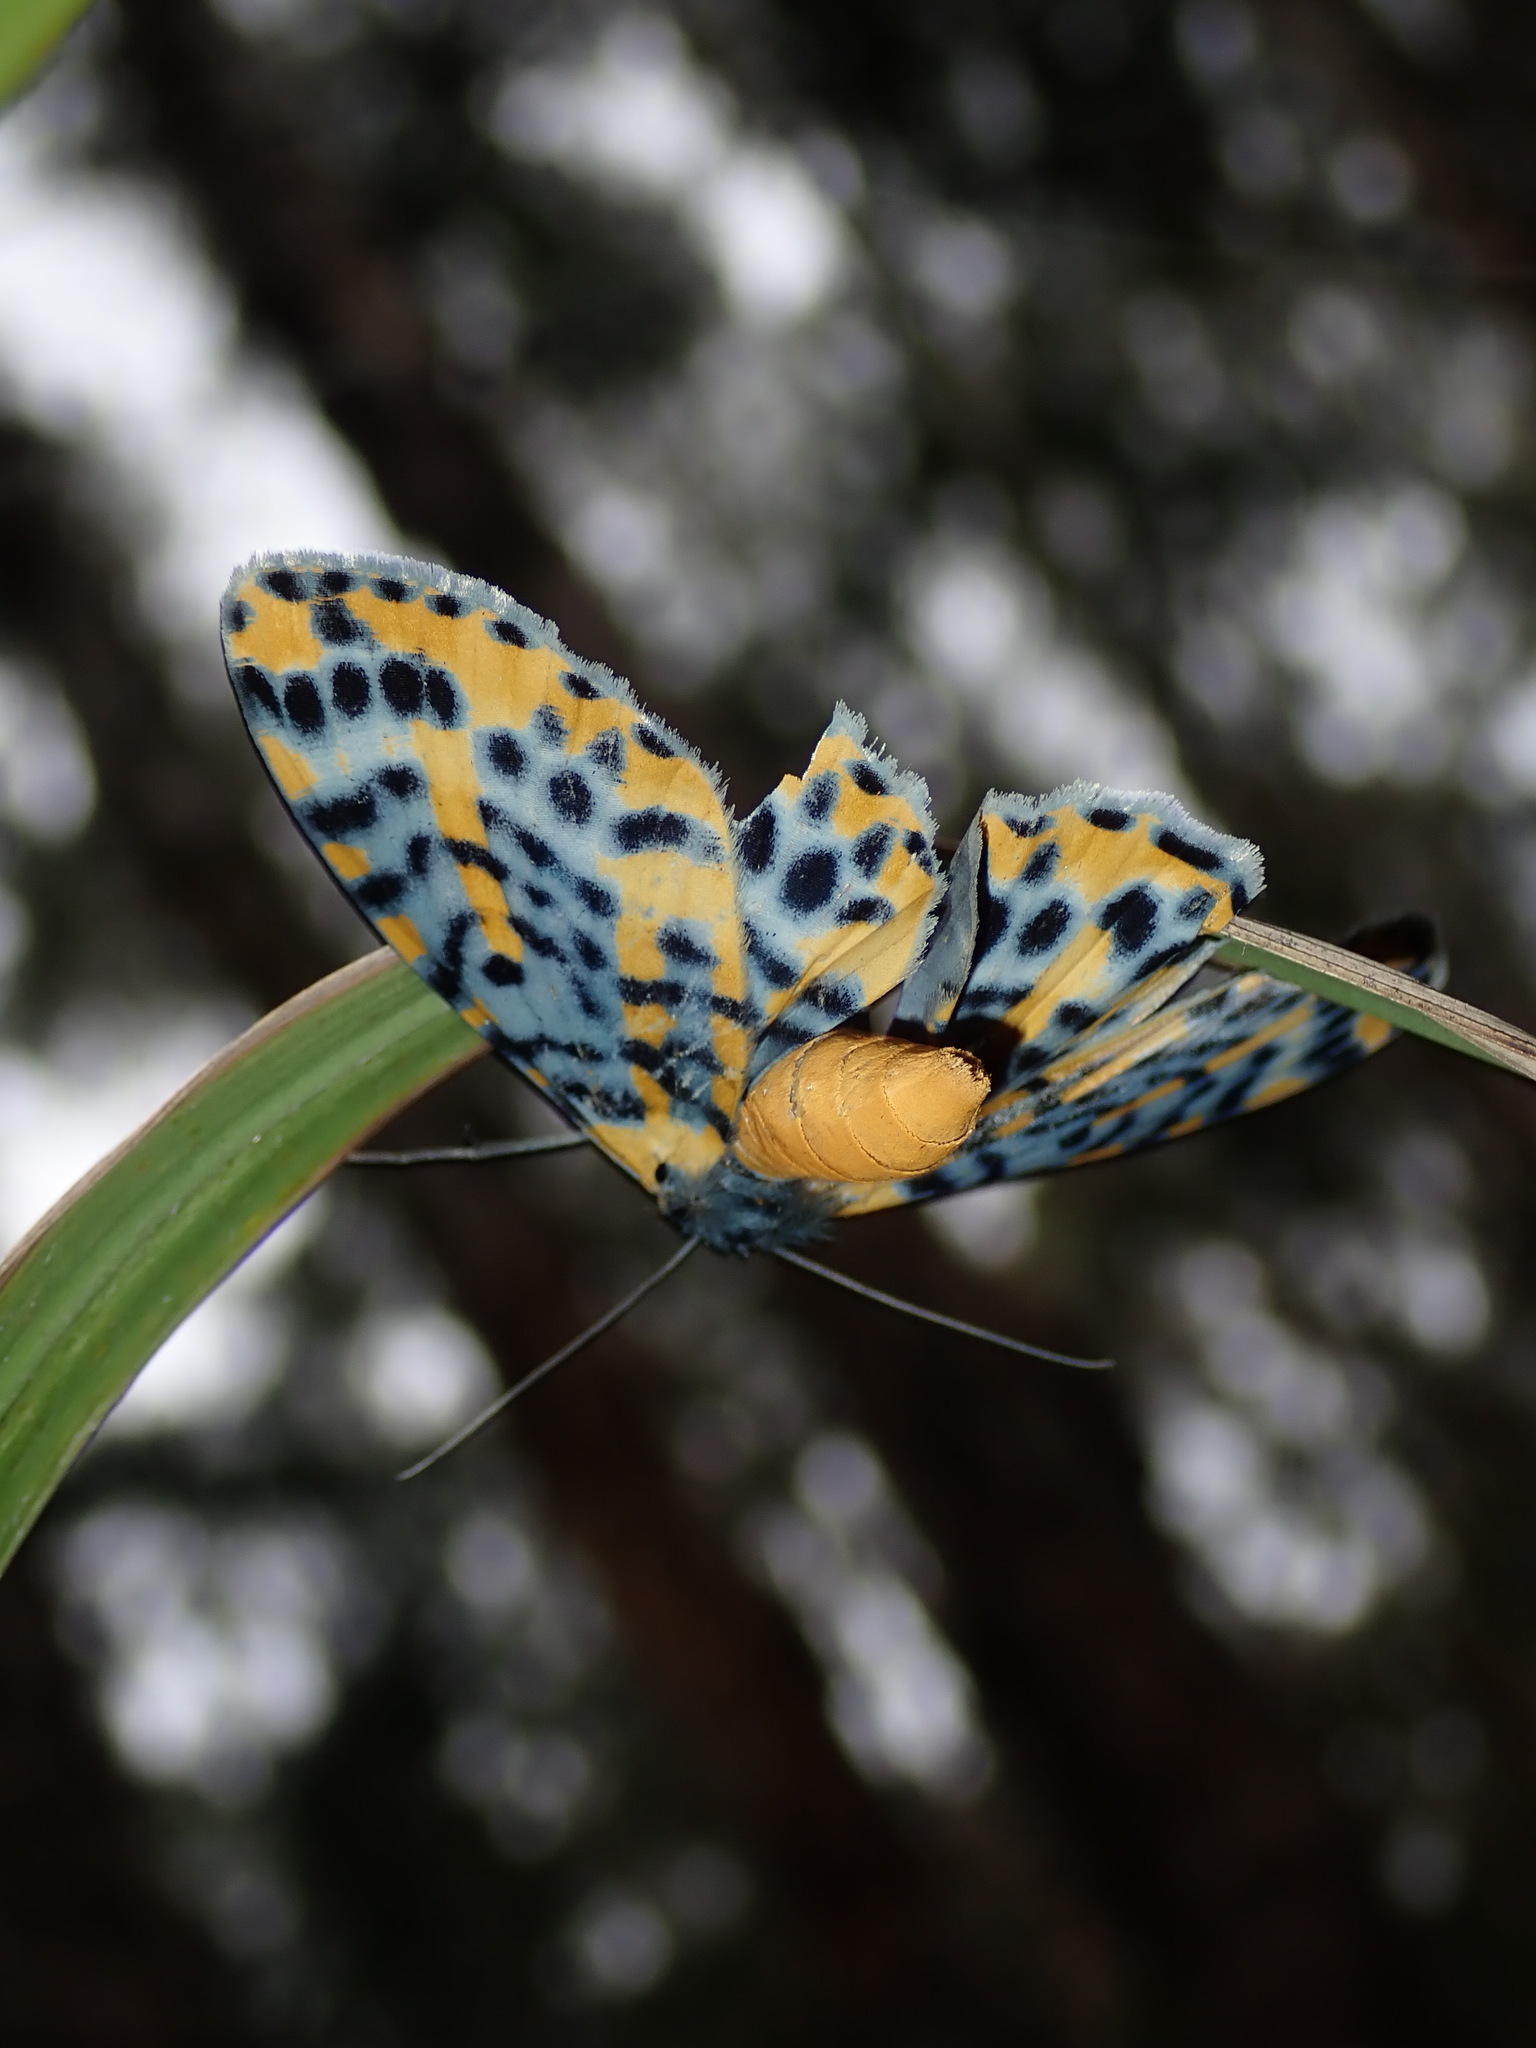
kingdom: Animalia
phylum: Arthropoda
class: Insecta
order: Lepidoptera
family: Geometridae
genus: Bracca
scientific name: Bracca matutinata
